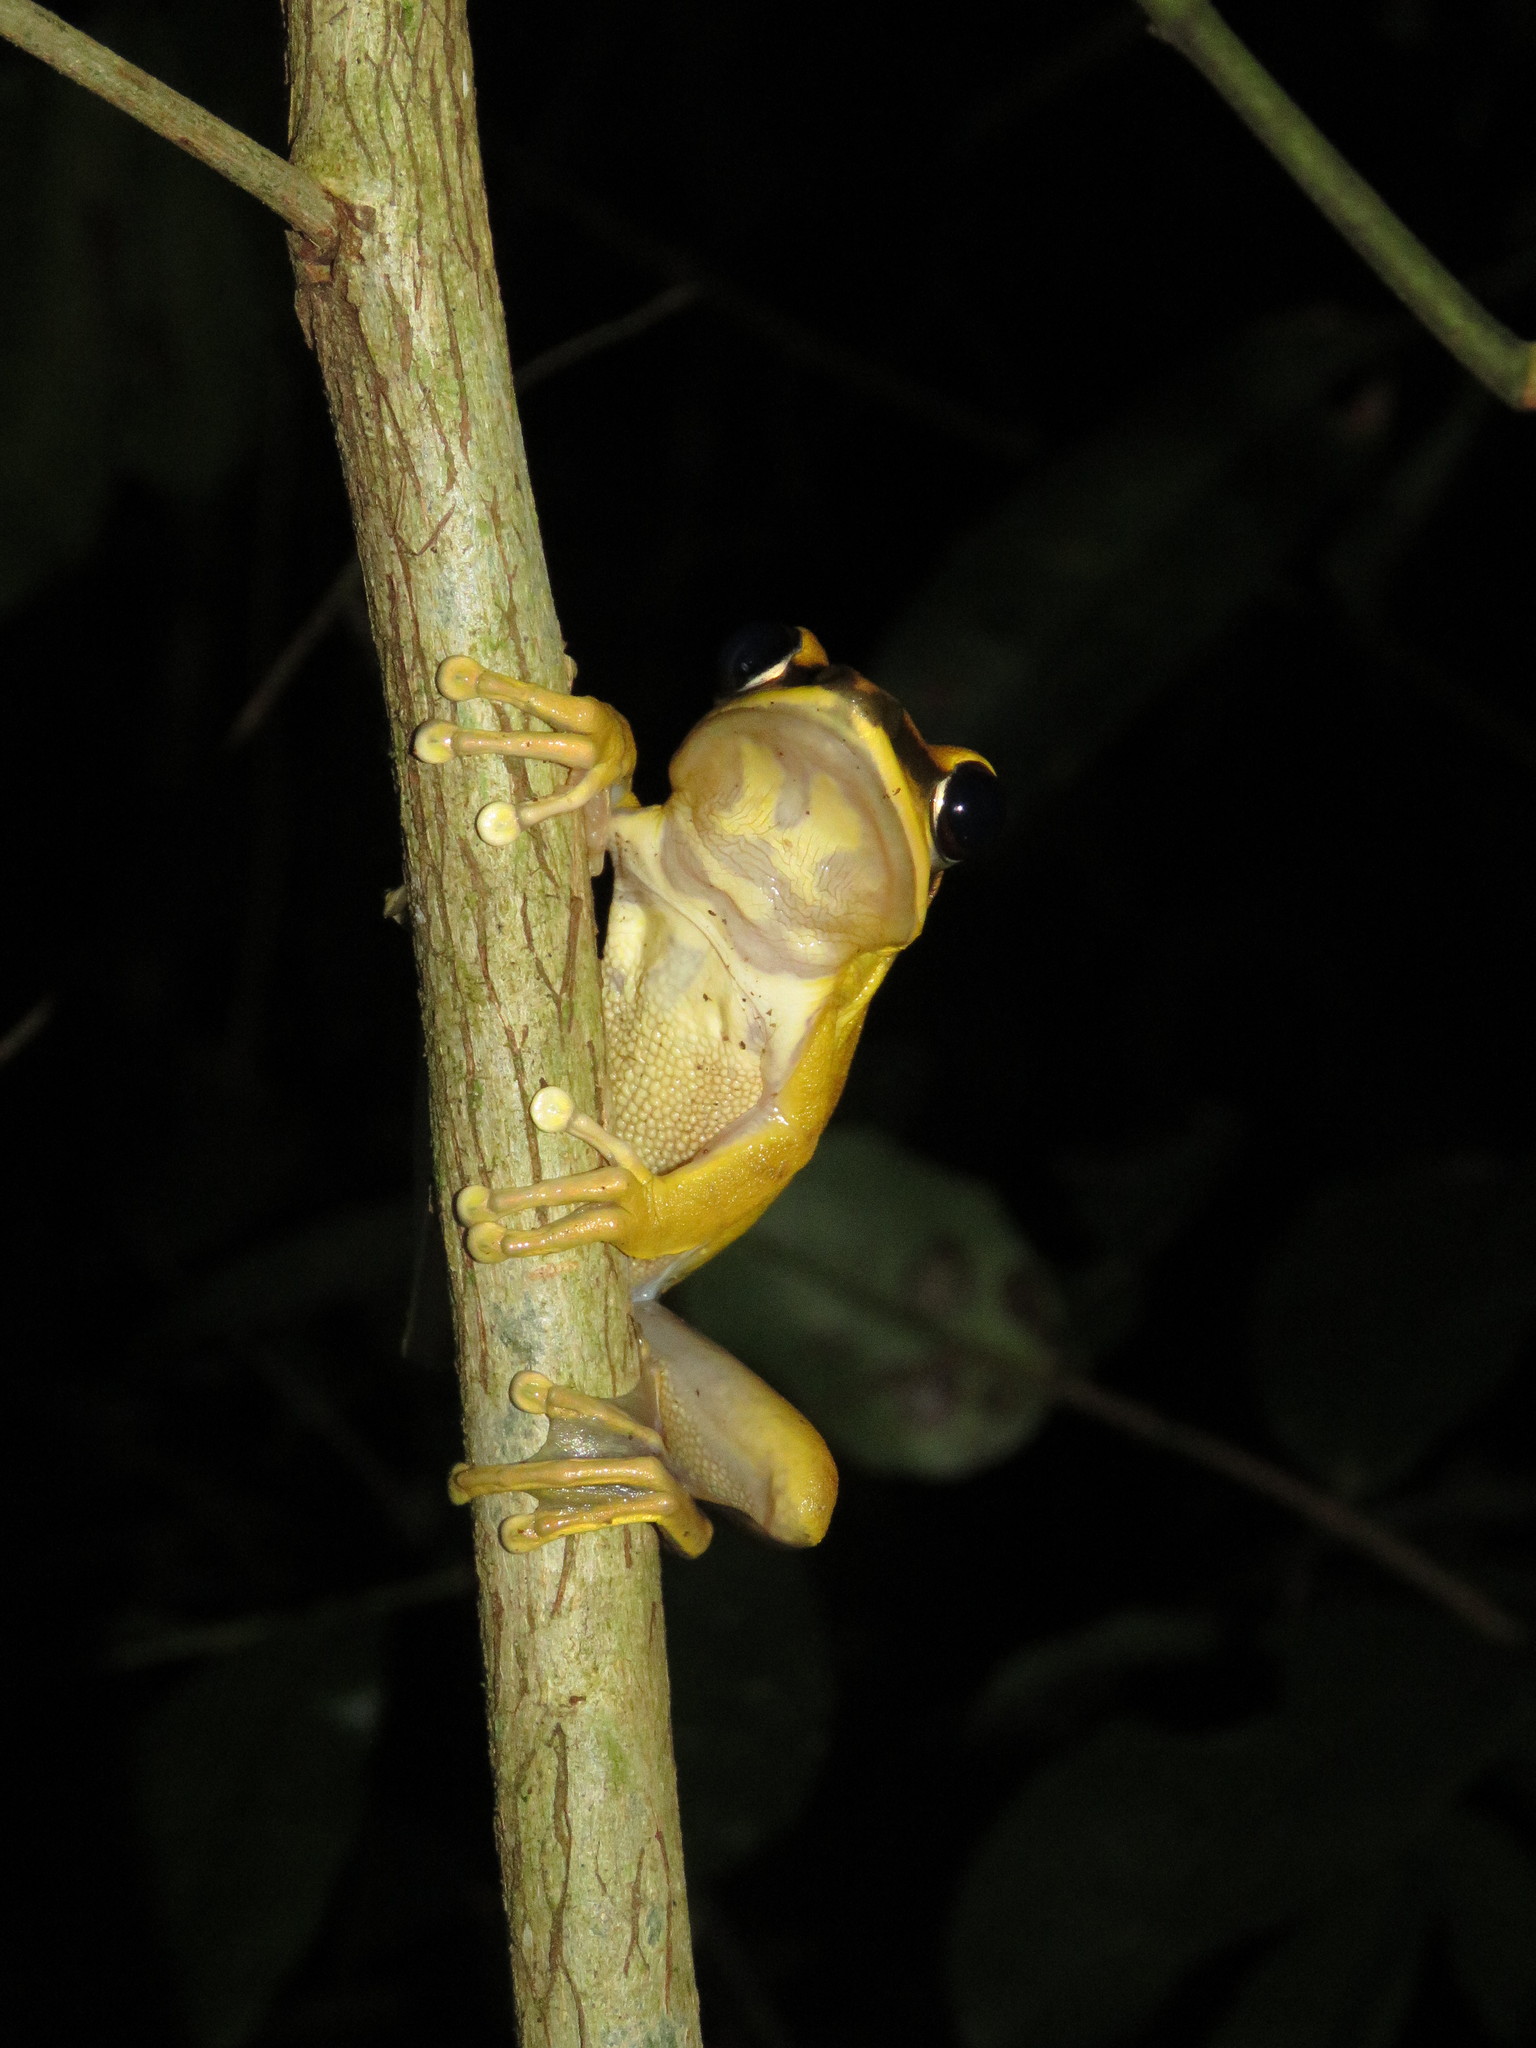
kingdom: Animalia
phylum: Chordata
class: Amphibia
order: Anura
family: Hylidae
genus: Boana
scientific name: Boana lanciformis
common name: Rana lanceolada commún
